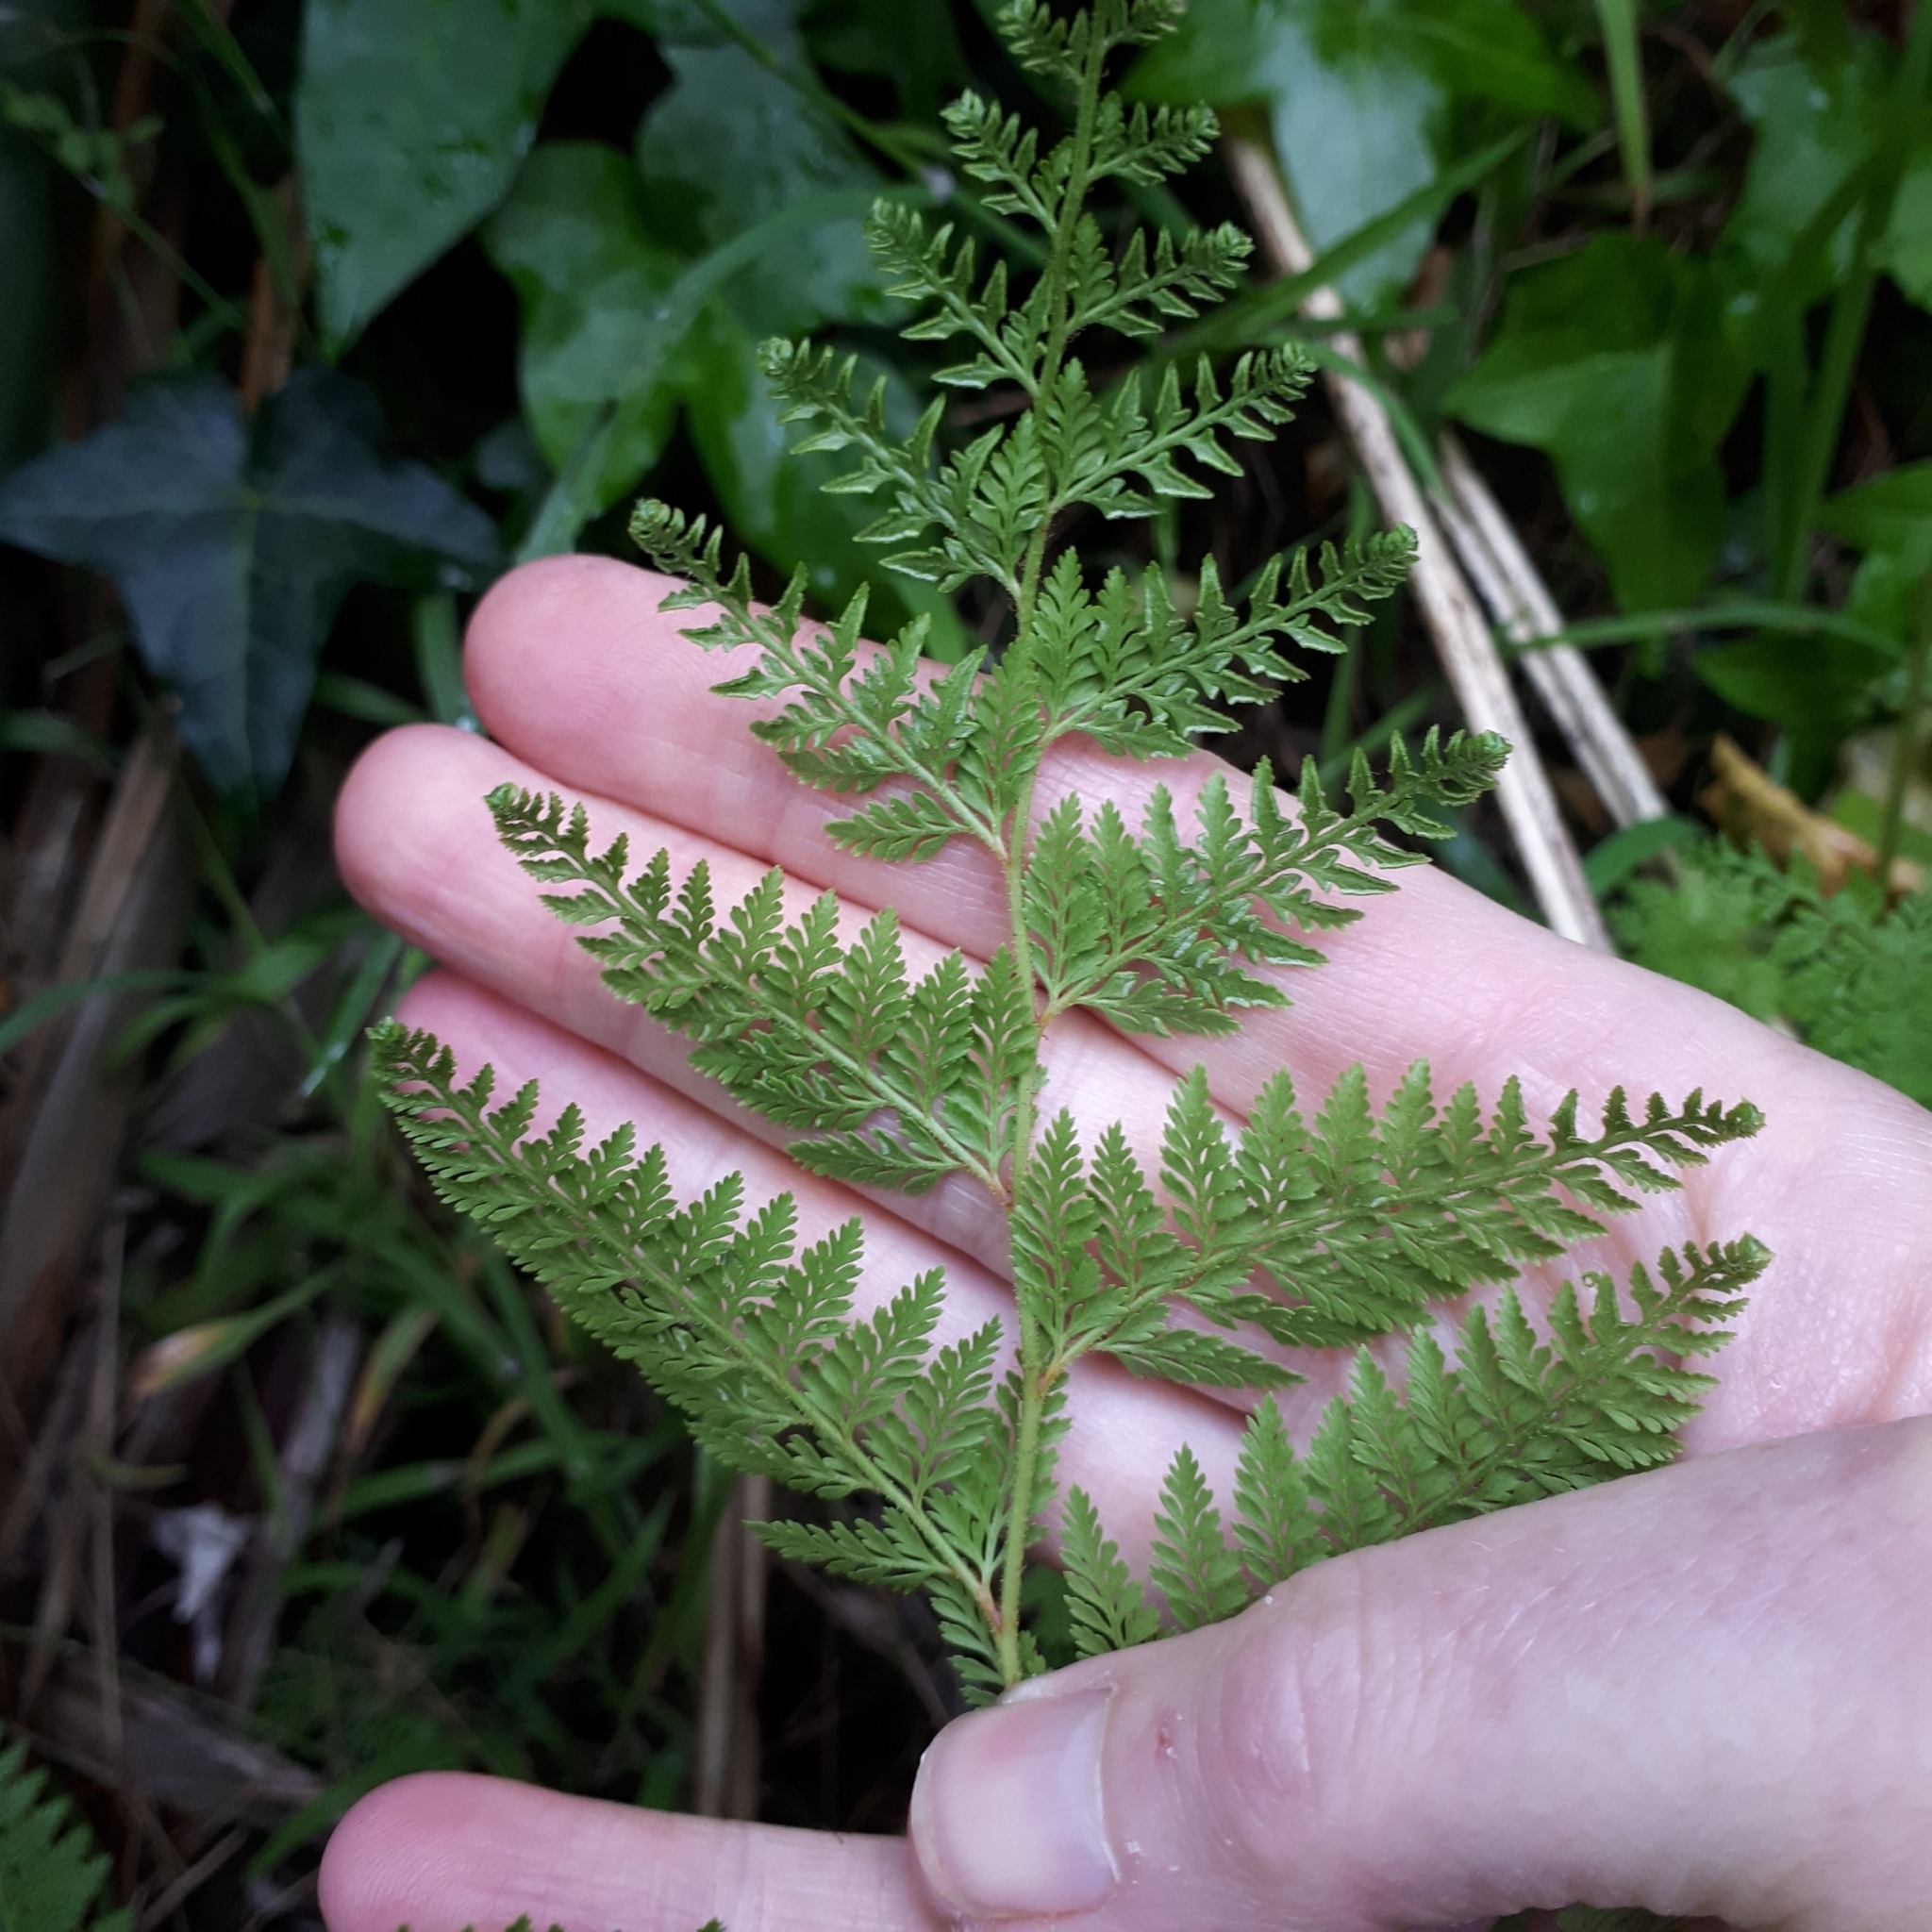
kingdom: Plantae
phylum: Tracheophyta
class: Polypodiopsida
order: Polypodiales
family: Dennstaedtiaceae
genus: Paesia
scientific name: Paesia scaberula
